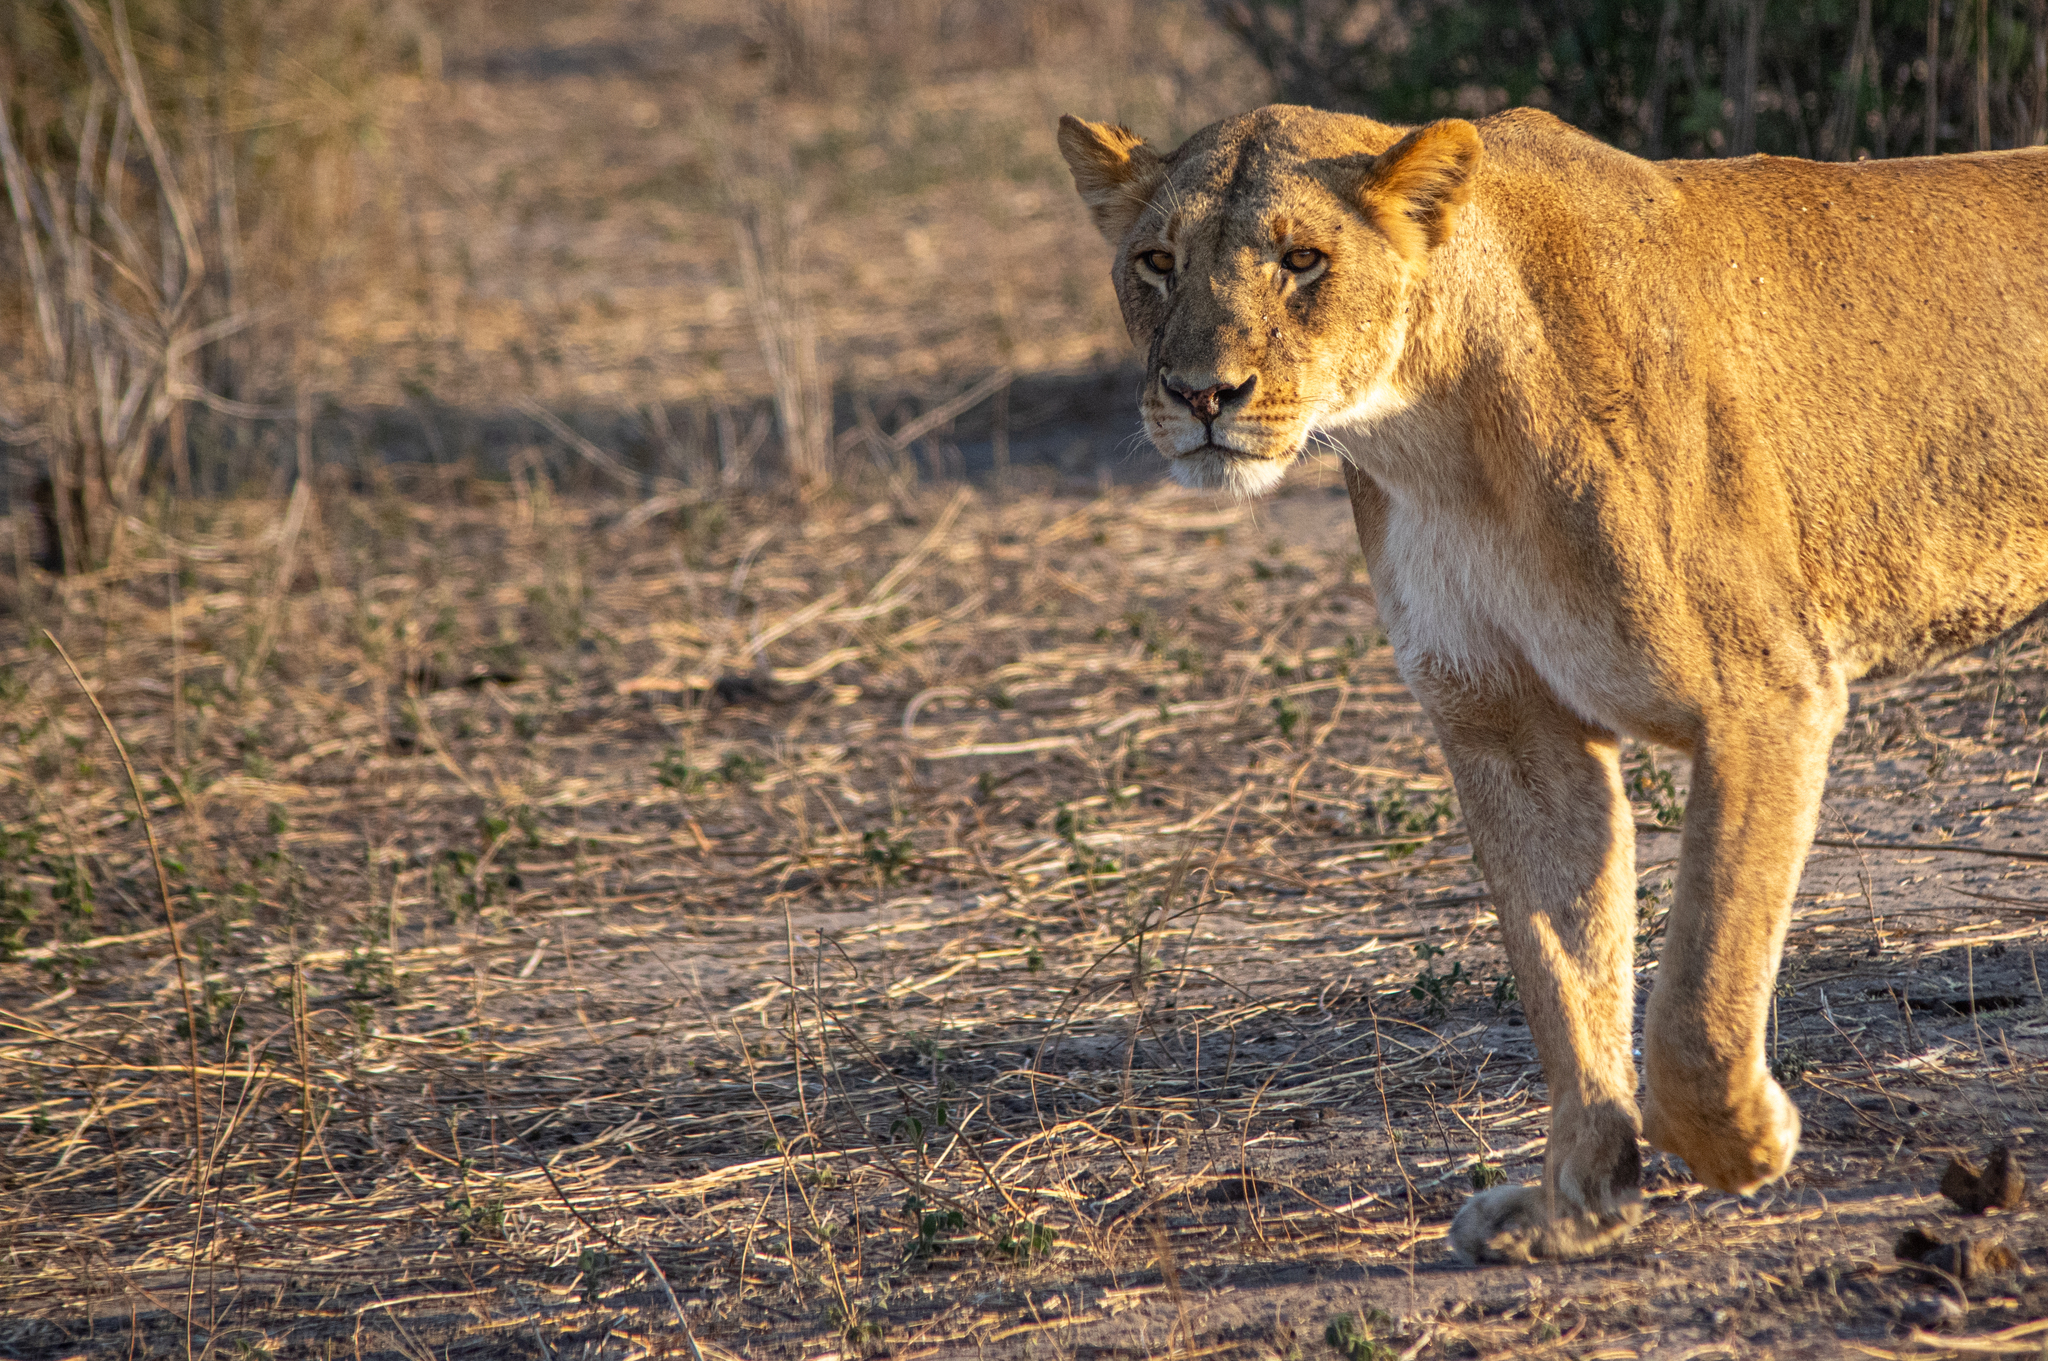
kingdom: Animalia
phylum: Chordata
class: Mammalia
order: Carnivora
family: Felidae
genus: Panthera
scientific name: Panthera leo
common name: Lion
